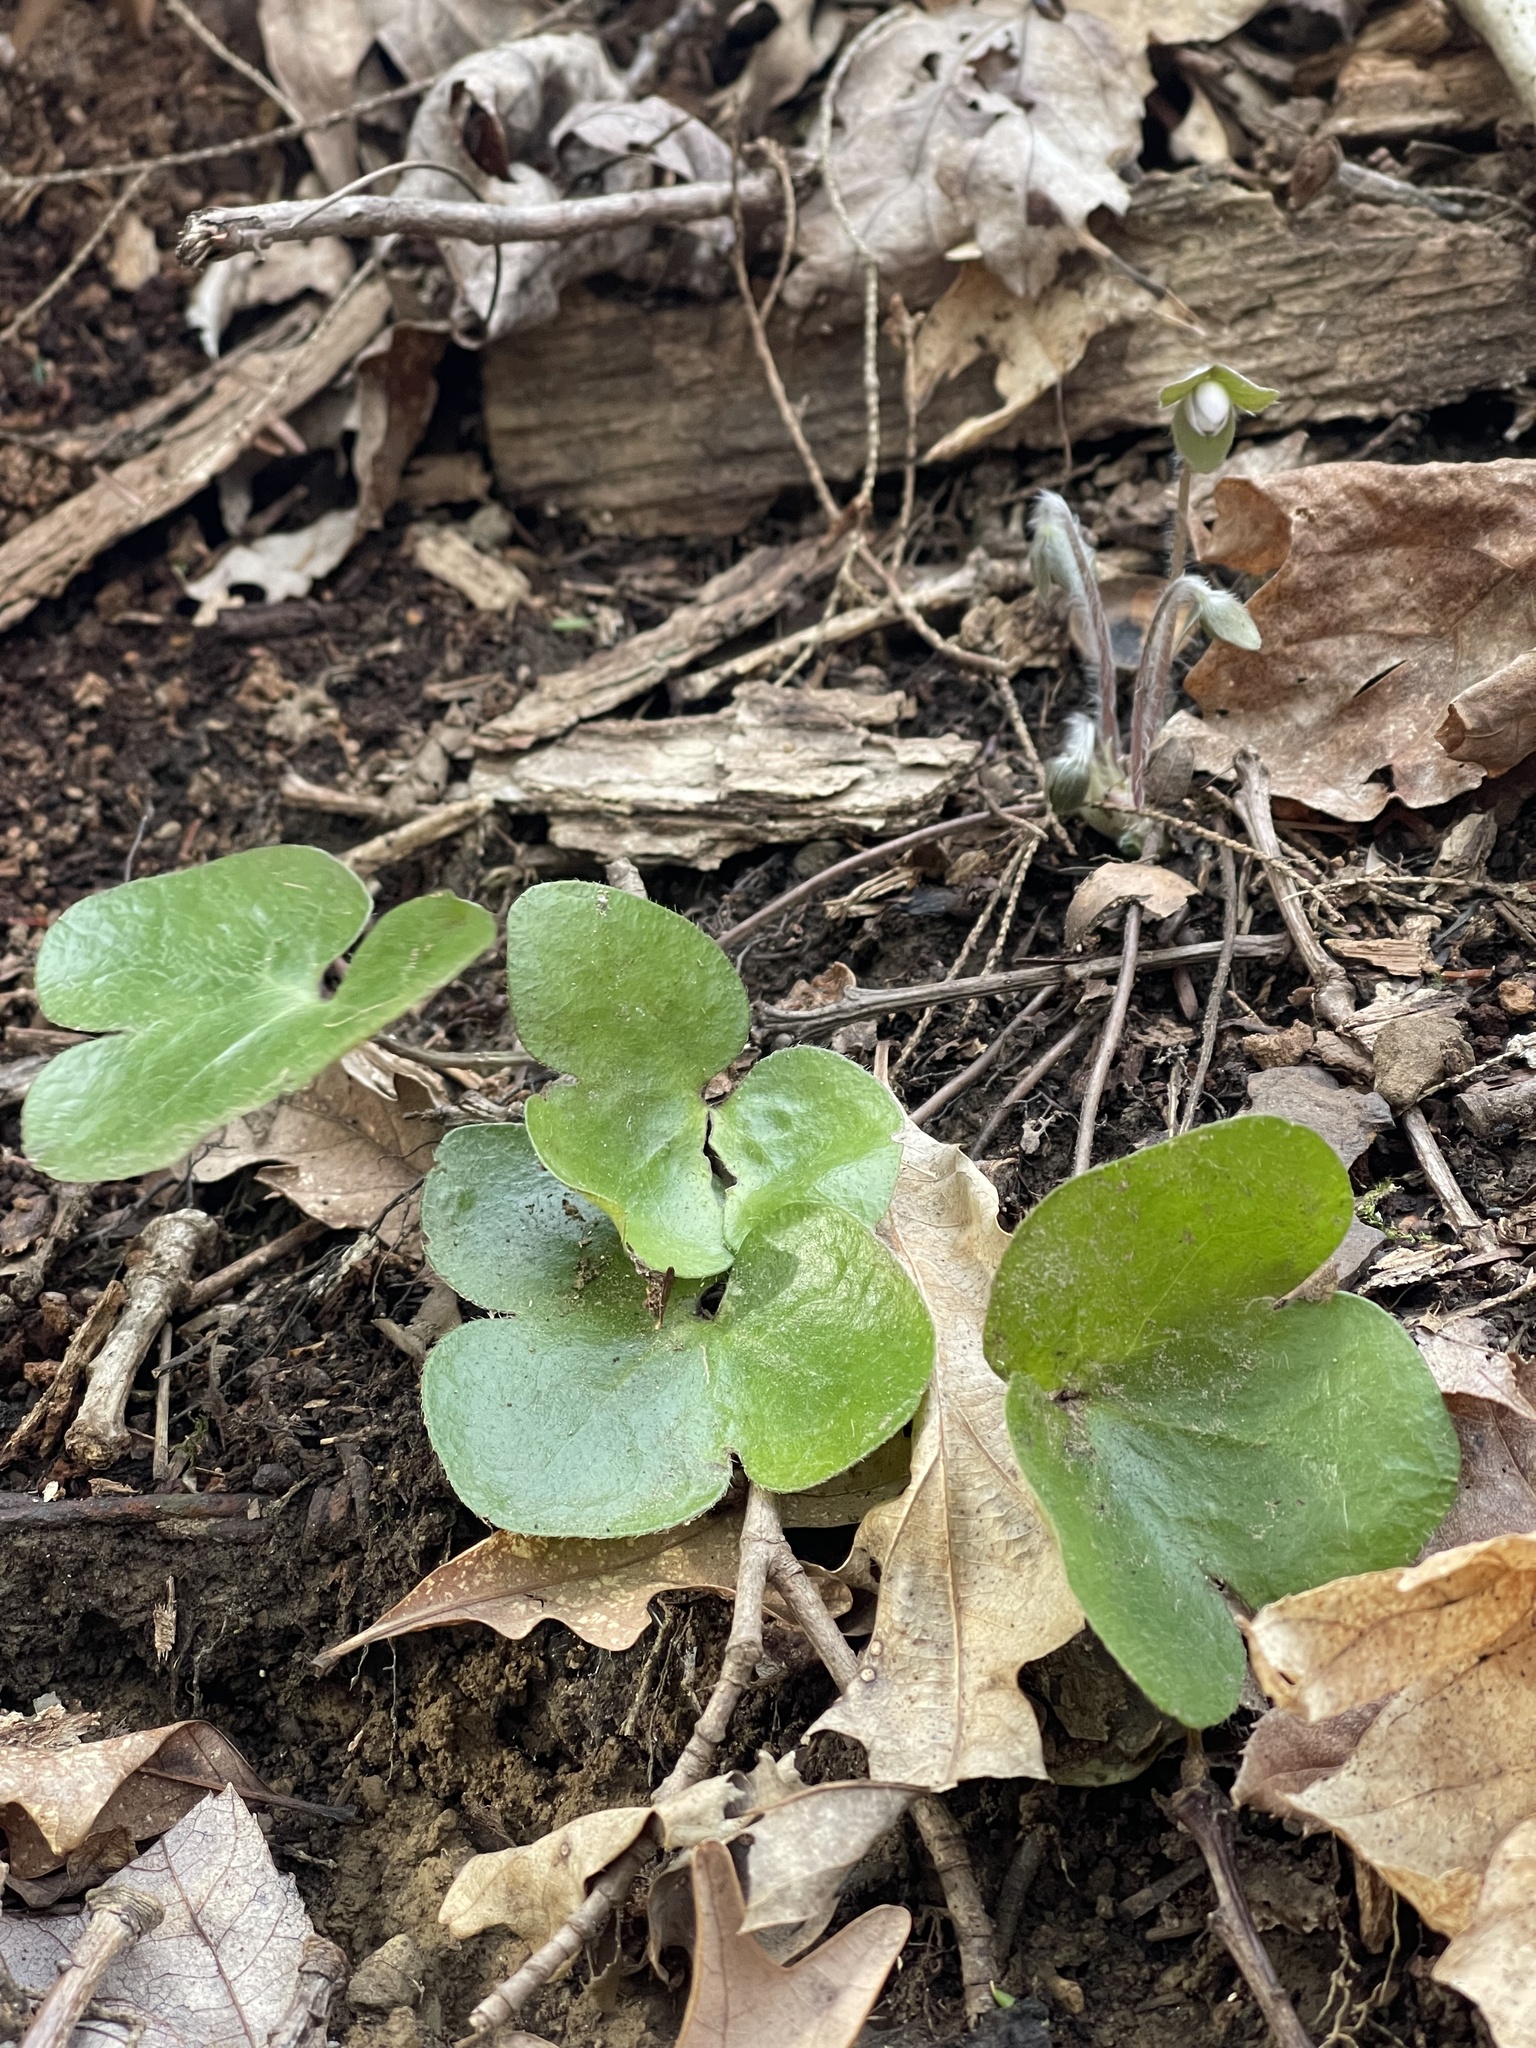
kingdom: Plantae
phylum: Tracheophyta
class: Magnoliopsida
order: Ranunculales
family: Ranunculaceae
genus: Hepatica
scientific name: Hepatica americana
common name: American hepatica
